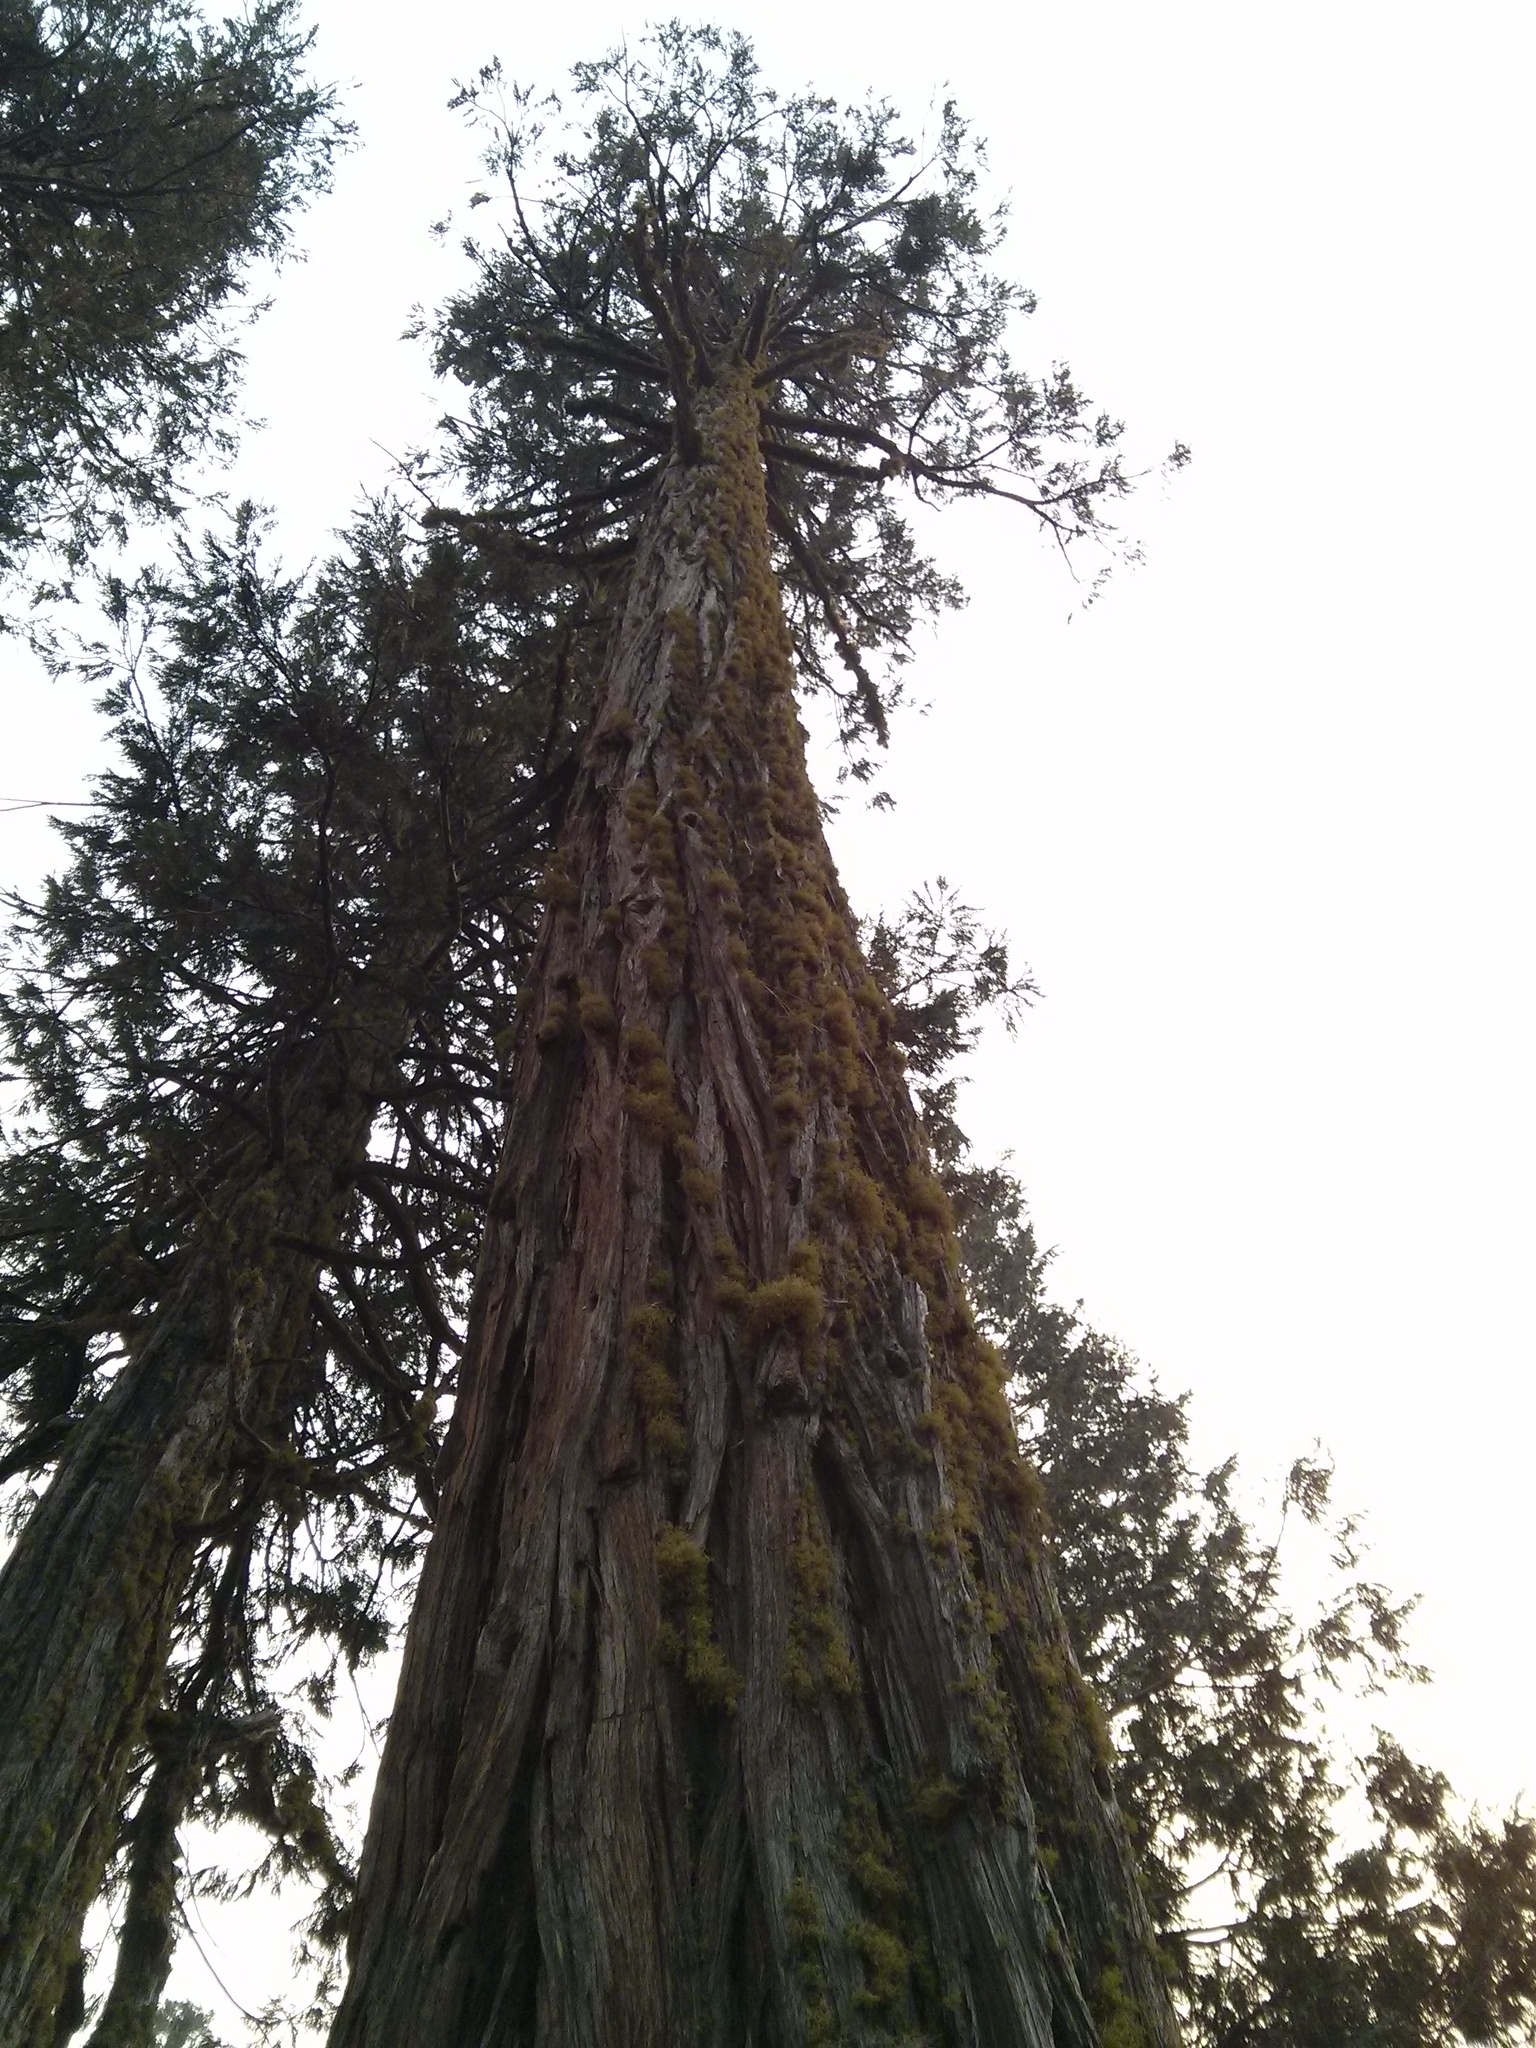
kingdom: Plantae
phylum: Tracheophyta
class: Pinopsida
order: Pinales
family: Cupressaceae
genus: Calocedrus
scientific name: Calocedrus decurrens
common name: Californian incense-cedar
